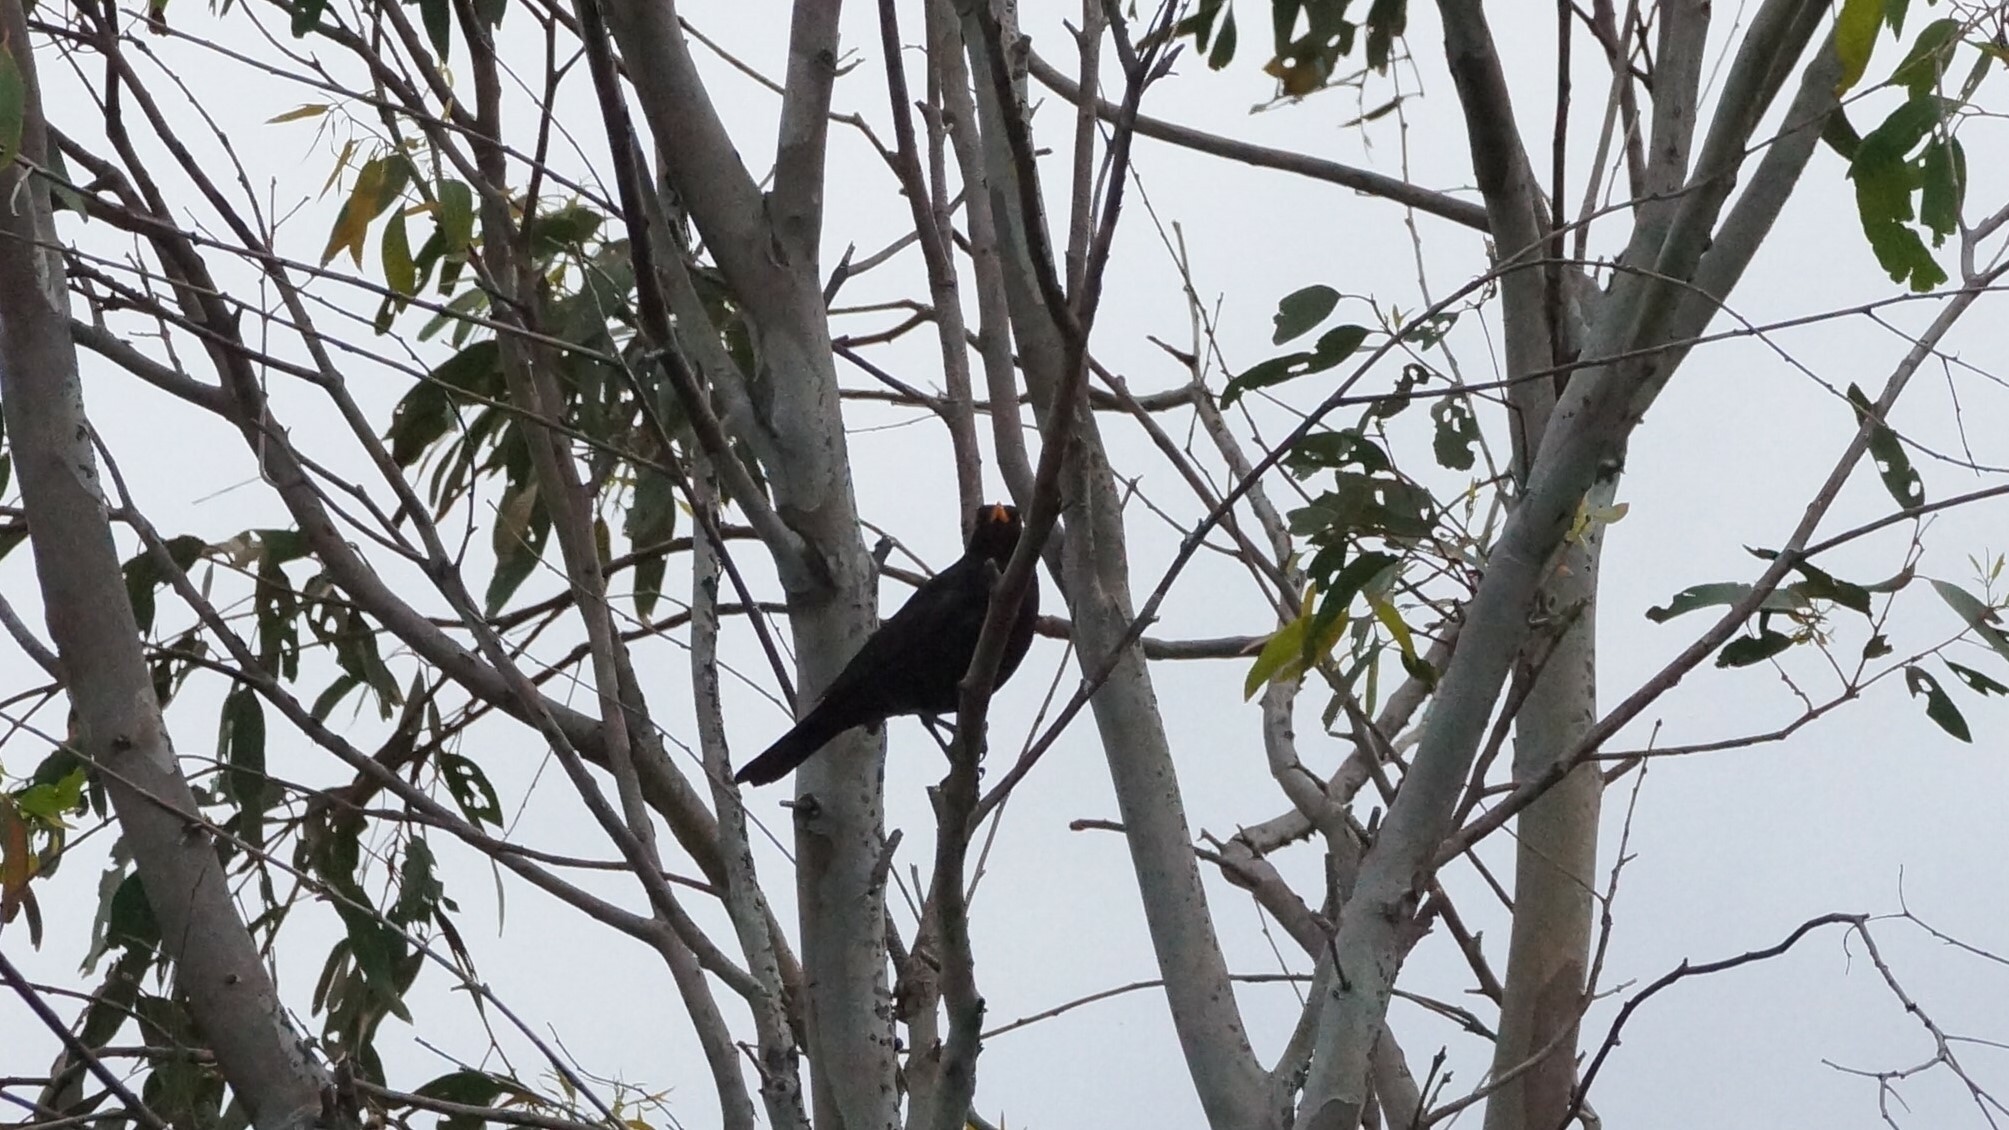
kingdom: Animalia
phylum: Chordata
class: Aves
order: Passeriformes
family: Turdidae
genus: Turdus
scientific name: Turdus merula
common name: Common blackbird
